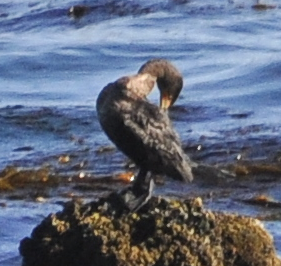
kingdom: Animalia
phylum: Chordata
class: Aves
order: Suliformes
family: Phalacrocoracidae
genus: Phalacrocorax
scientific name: Phalacrocorax auritus
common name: Double-crested cormorant
